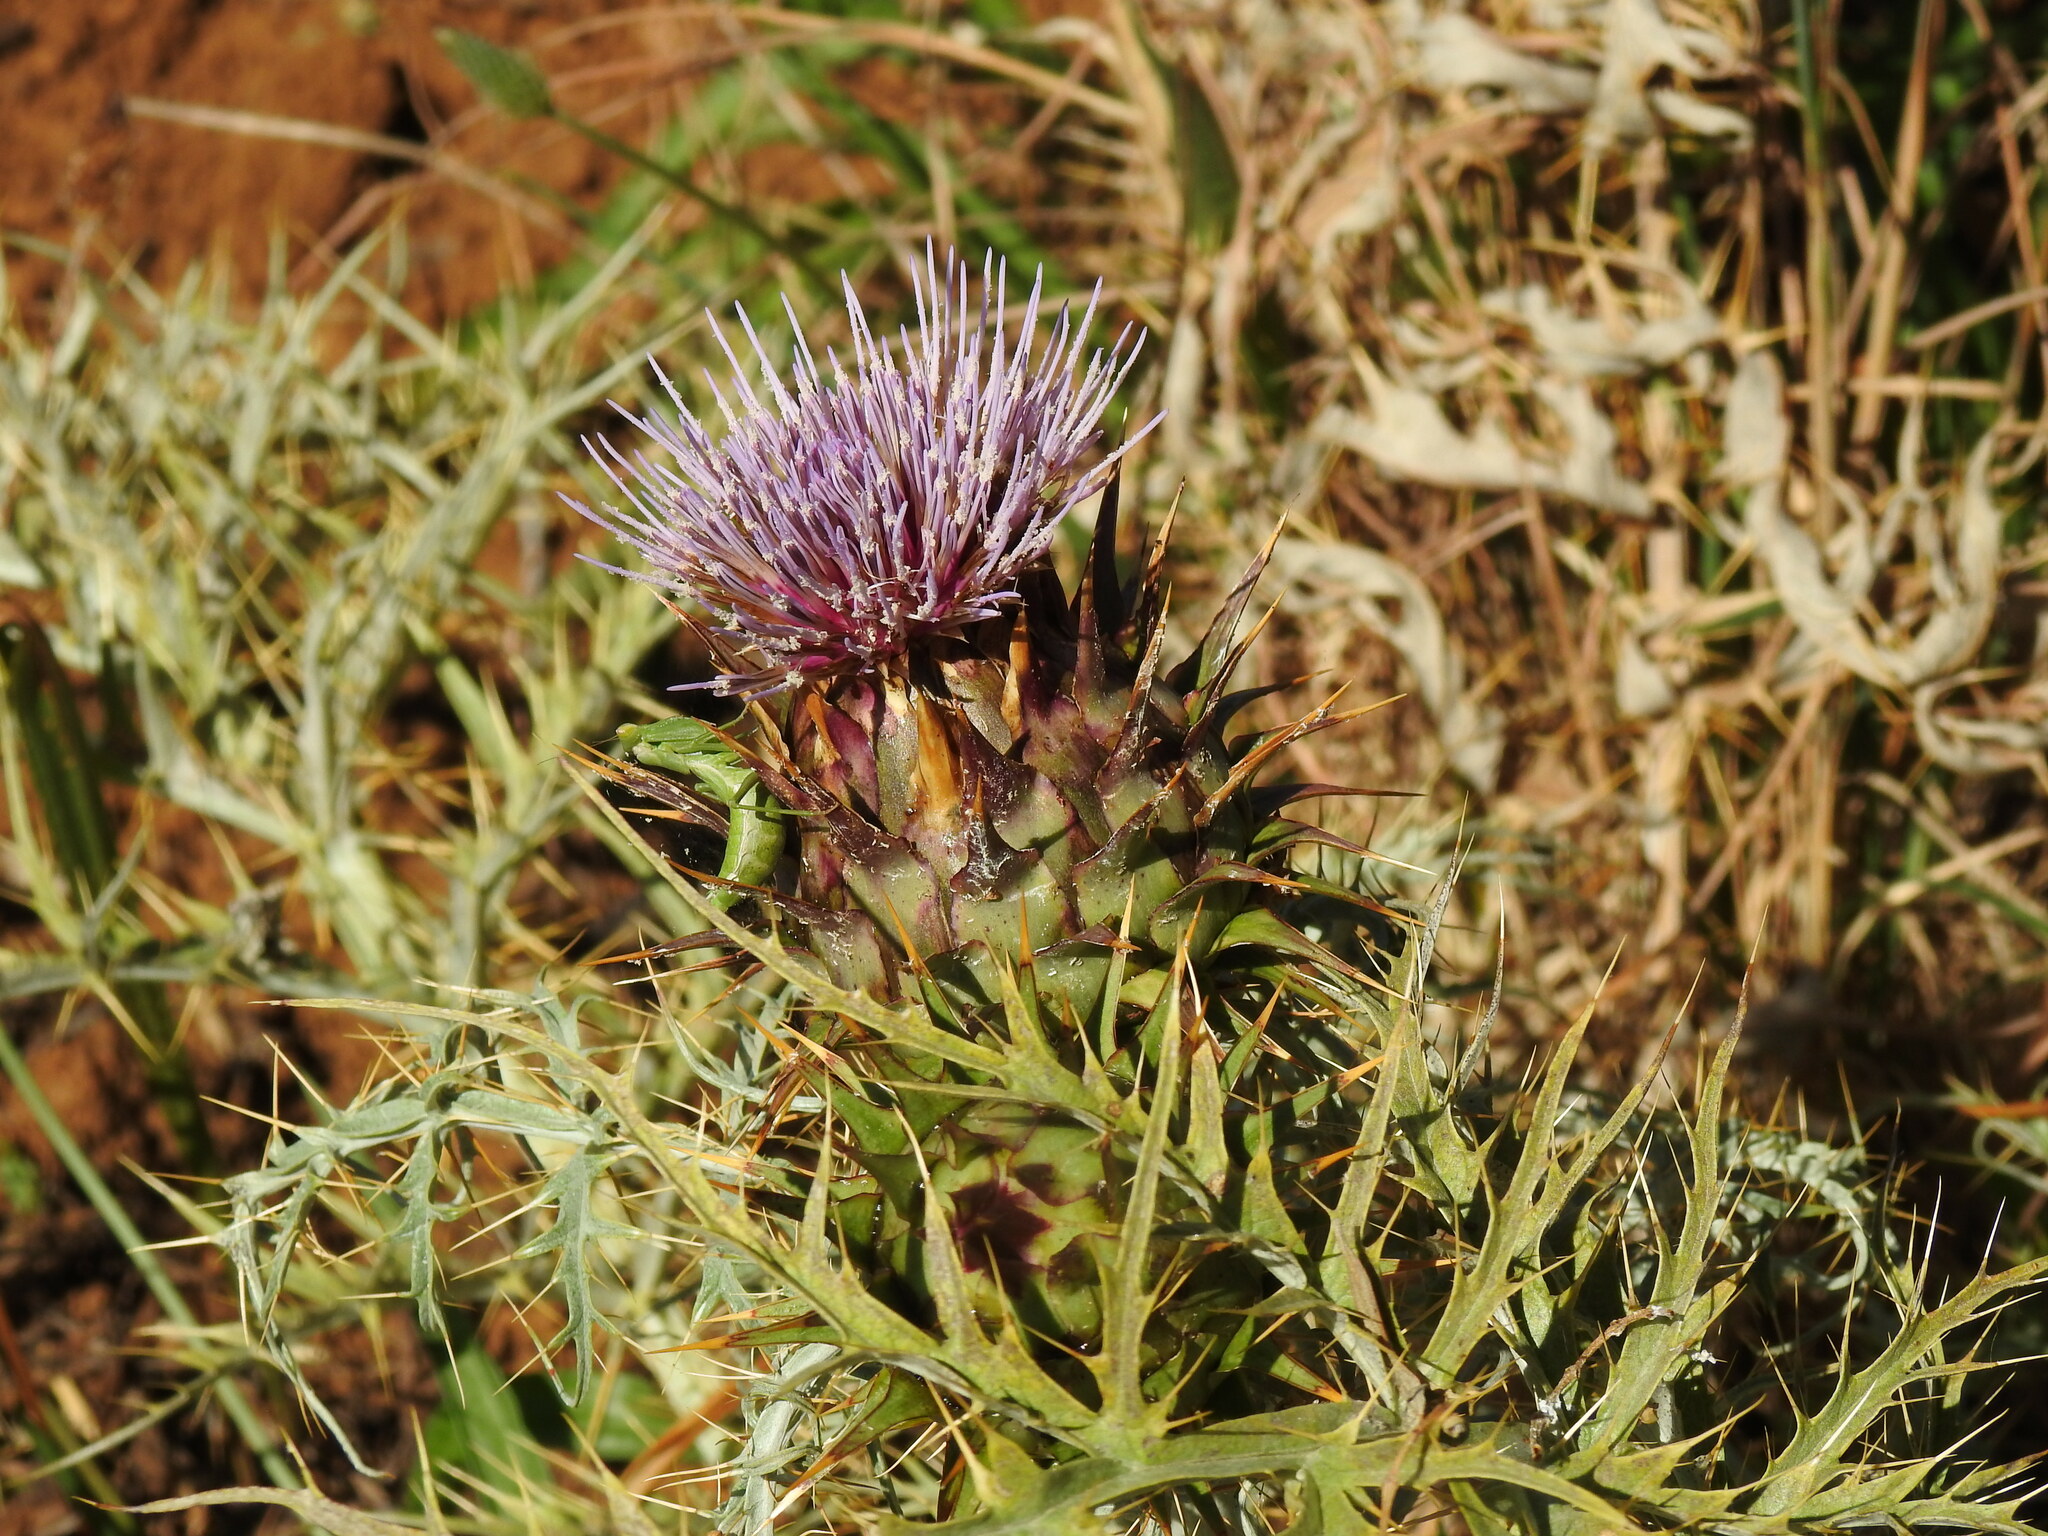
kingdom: Plantae
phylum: Tracheophyta
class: Magnoliopsida
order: Asterales
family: Asteraceae
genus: Cynara
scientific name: Cynara cardunculus
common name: Globe artichoke
